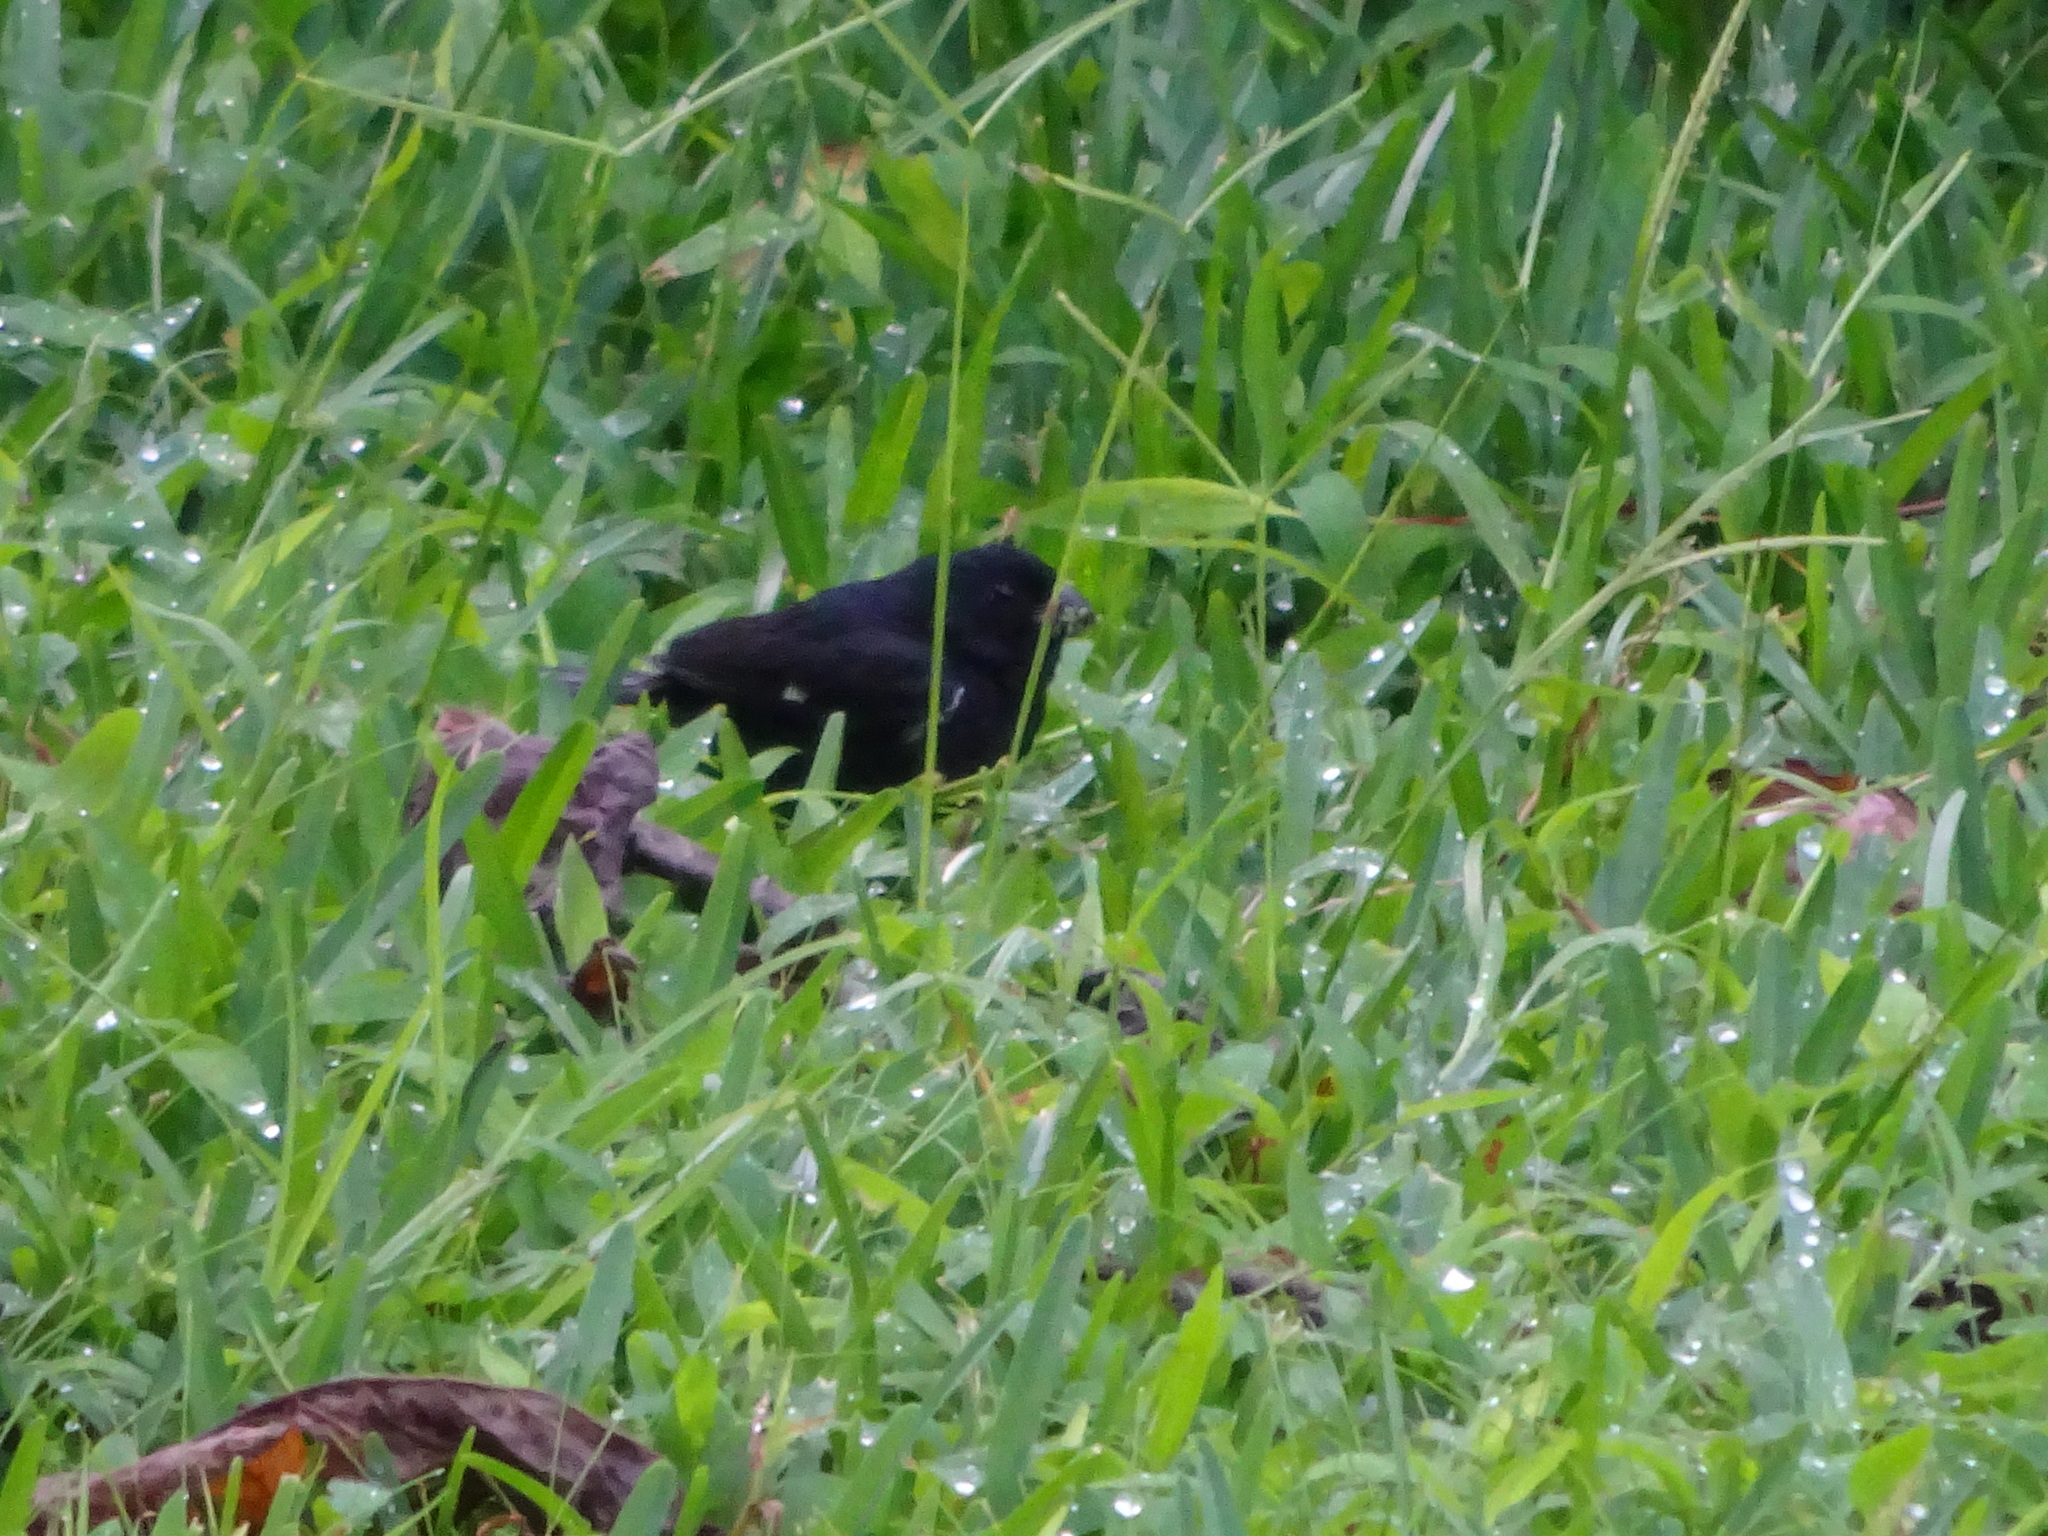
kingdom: Animalia
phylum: Chordata
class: Aves
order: Passeriformes
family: Thraupidae
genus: Sporophila
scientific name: Sporophila corvina
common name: Variable seedeater
